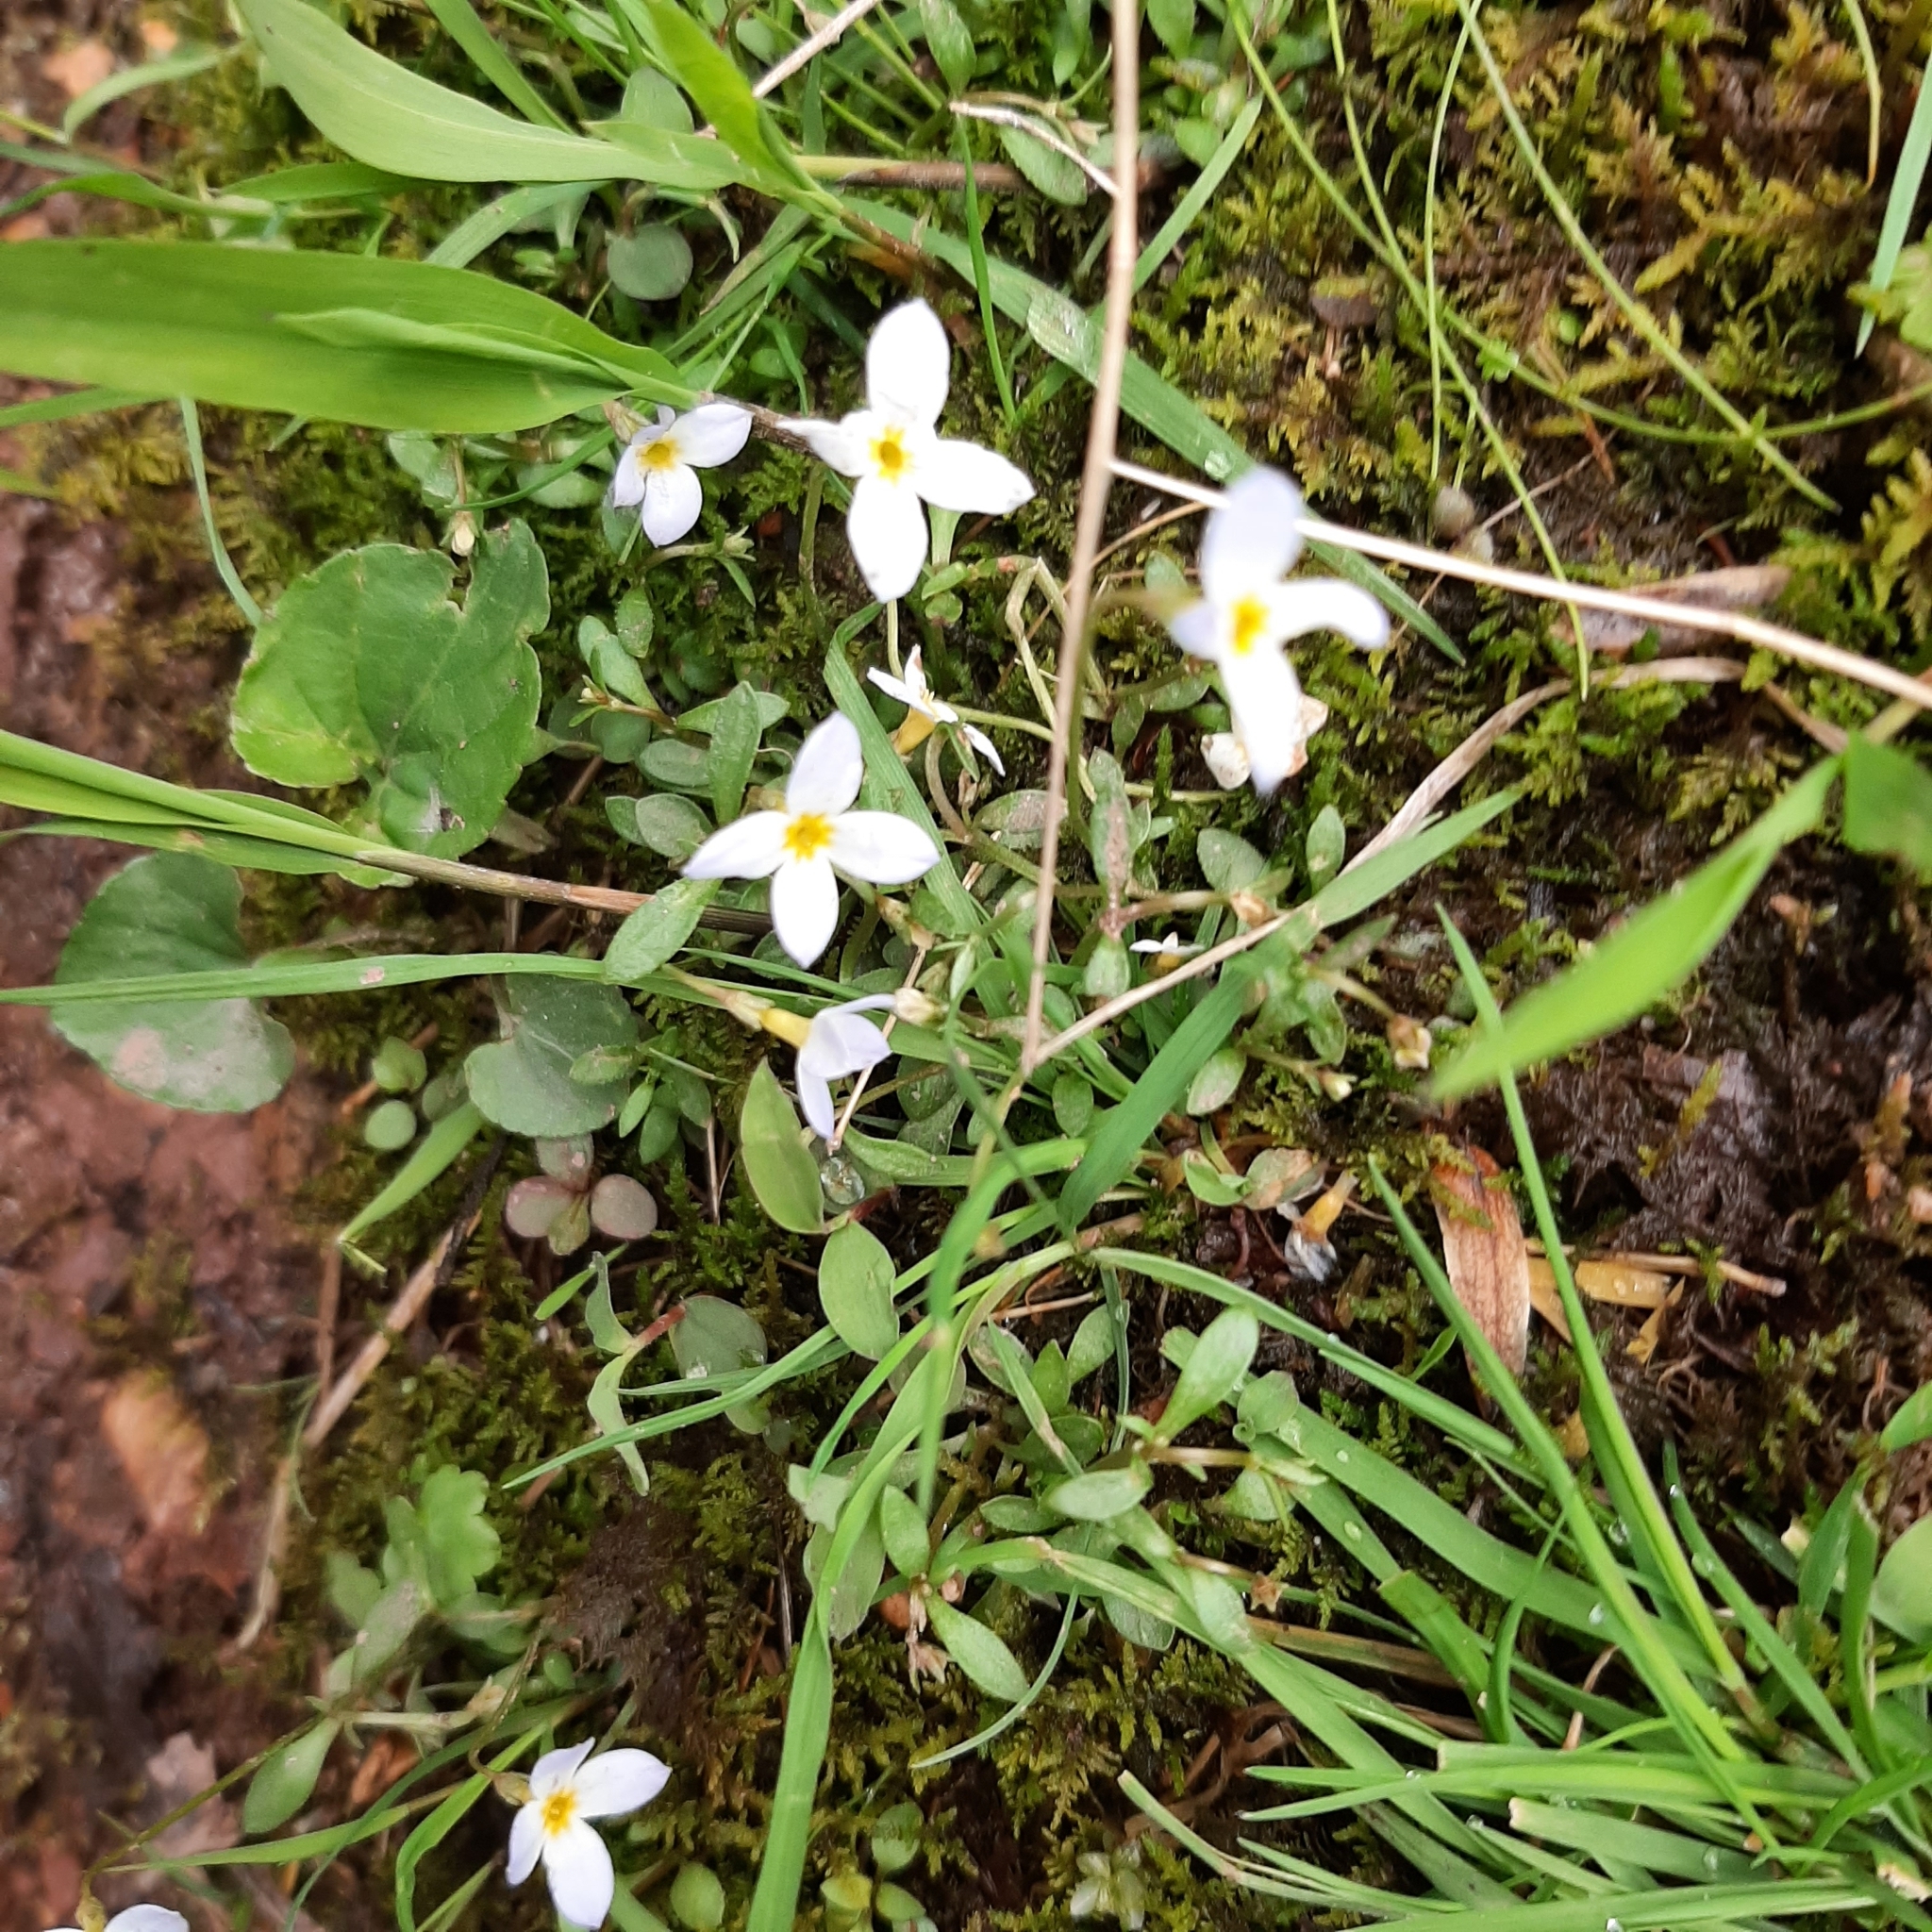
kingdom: Plantae
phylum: Tracheophyta
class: Magnoliopsida
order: Gentianales
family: Rubiaceae
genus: Houstonia
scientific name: Houstonia caerulea
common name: Bluets
